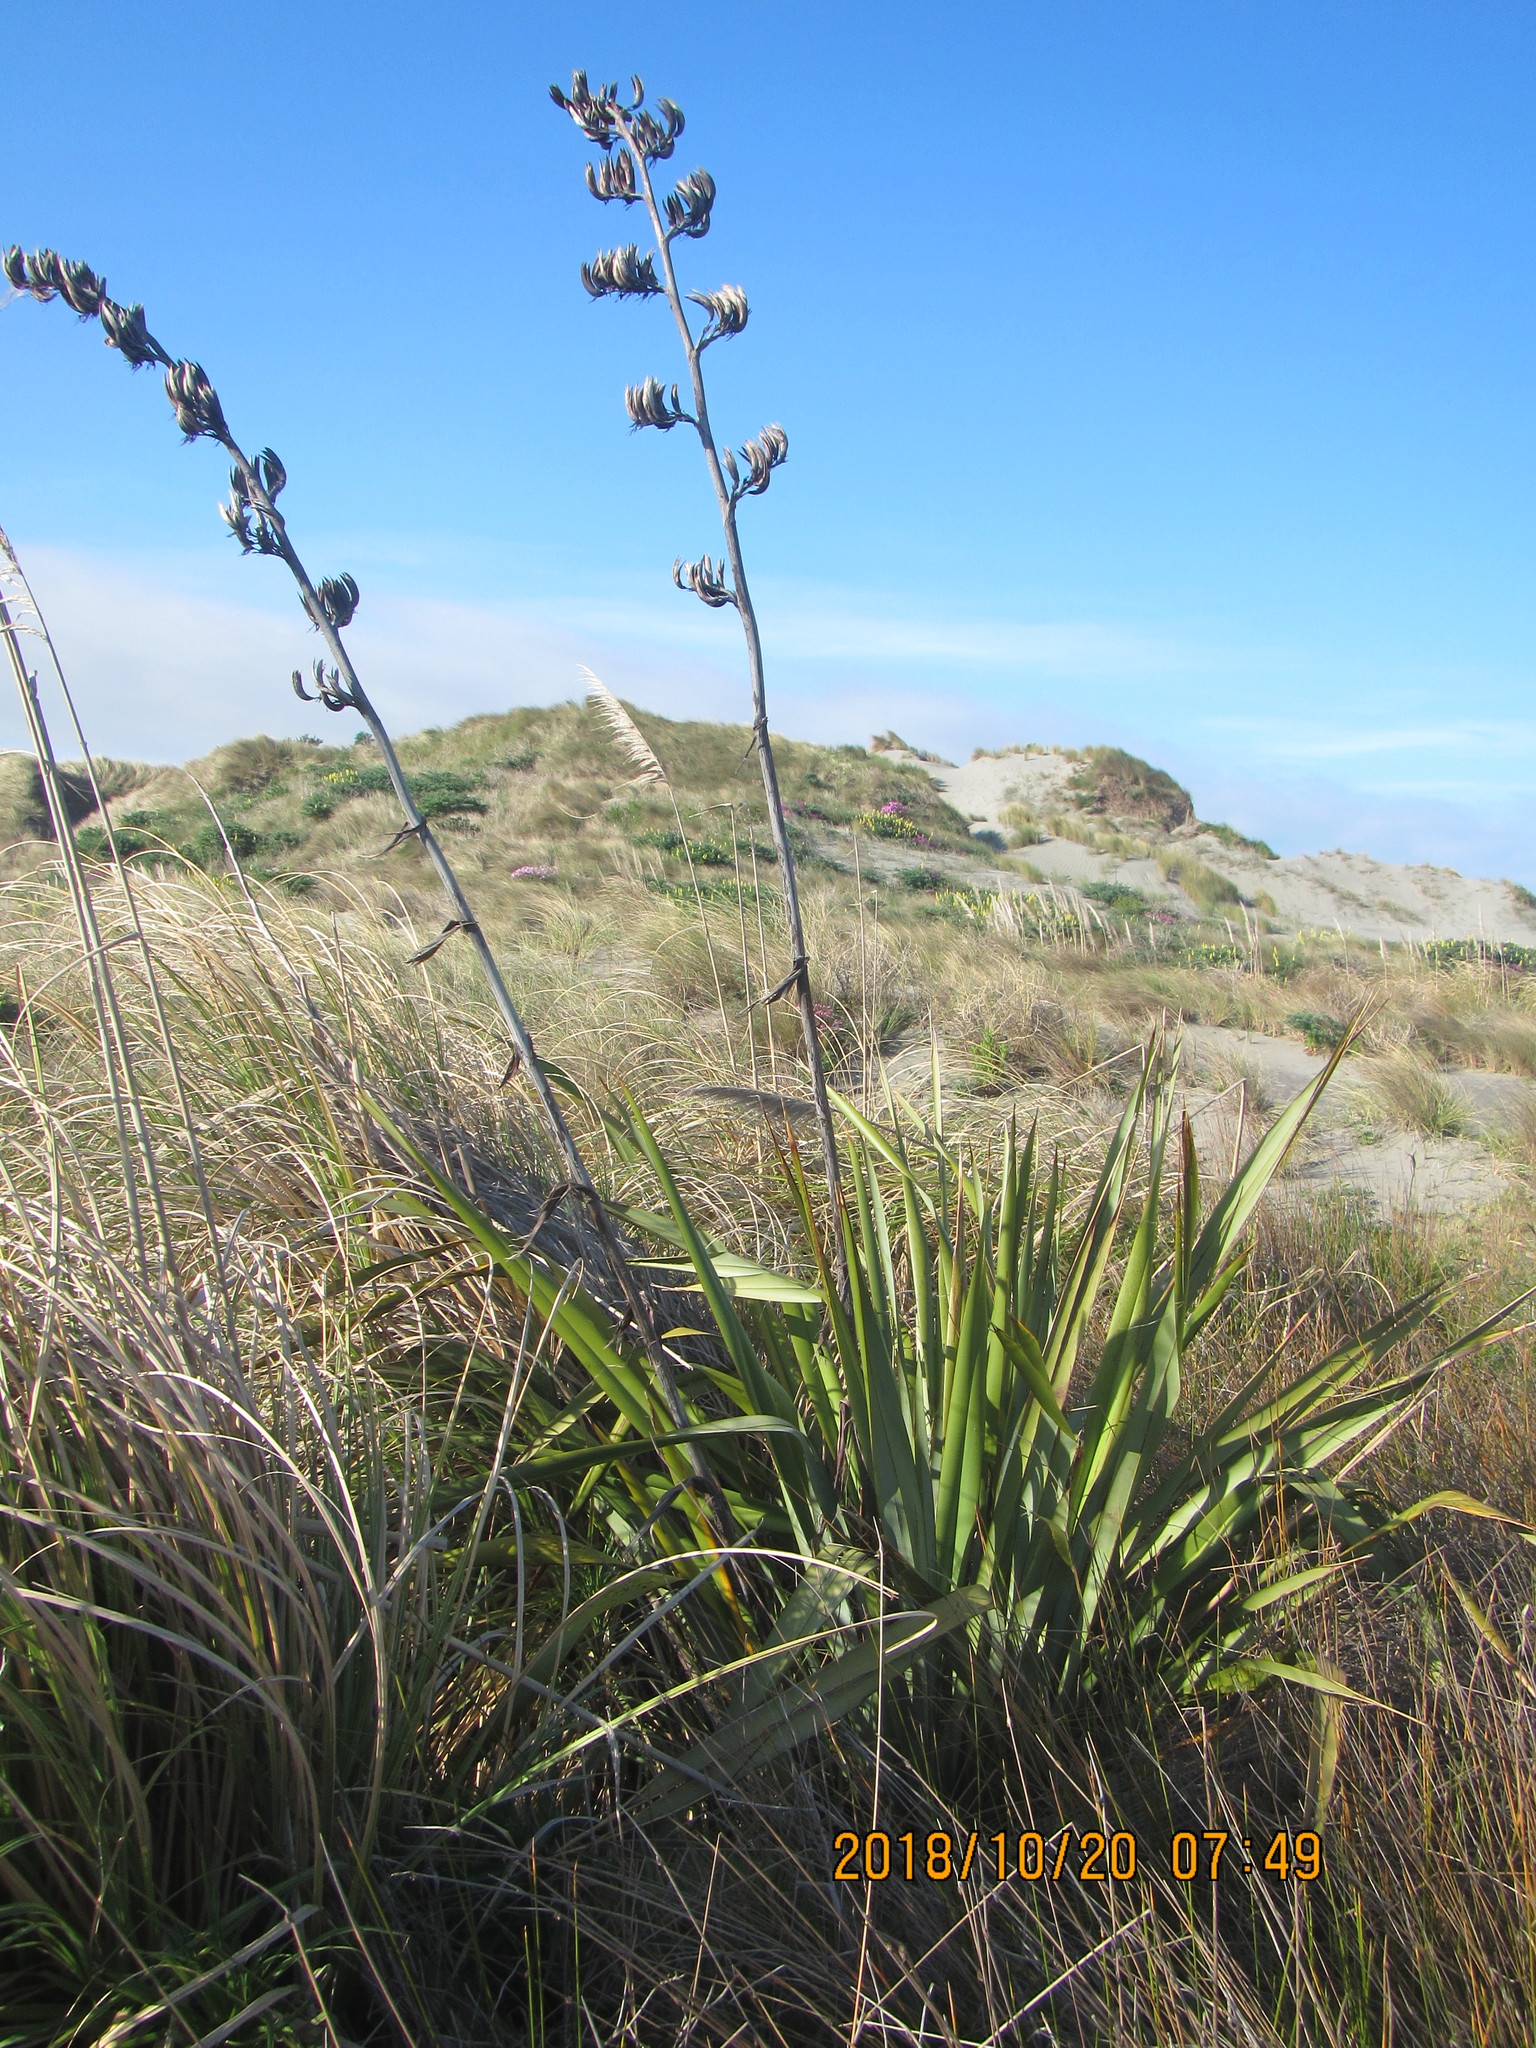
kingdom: Plantae
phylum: Tracheophyta
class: Liliopsida
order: Asparagales
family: Asphodelaceae
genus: Phormium
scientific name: Phormium tenax
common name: New zealand flax
